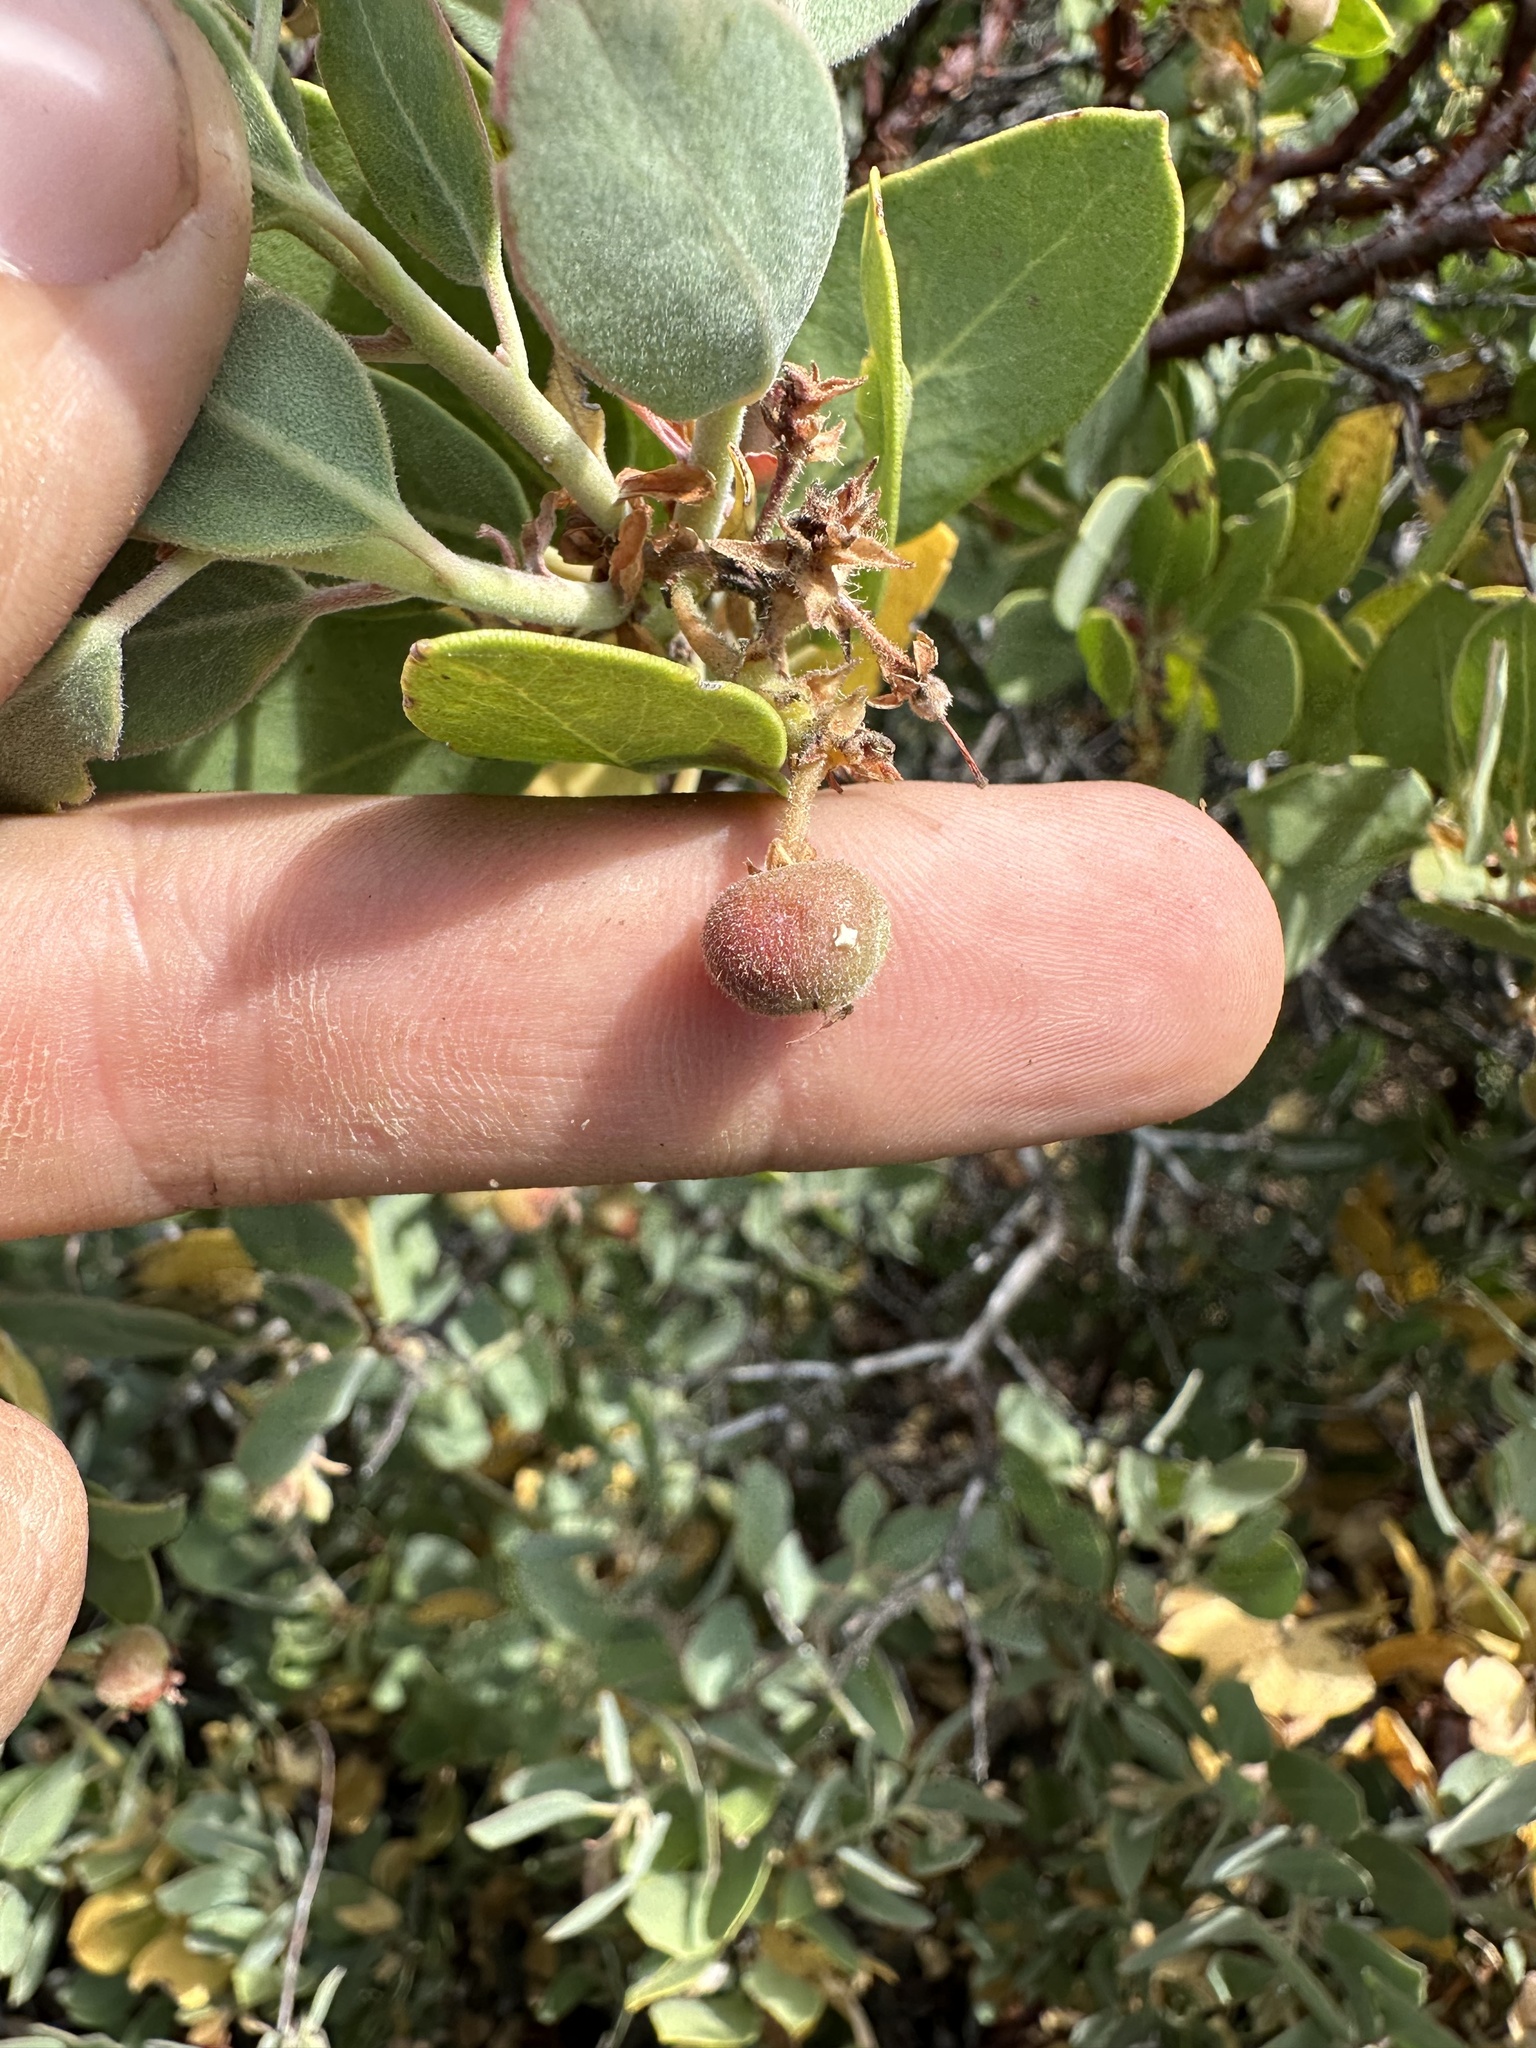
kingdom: Plantae
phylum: Tracheophyta
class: Magnoliopsida
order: Ericales
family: Ericaceae
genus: Arctostaphylos
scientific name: Arctostaphylos glandulosa
